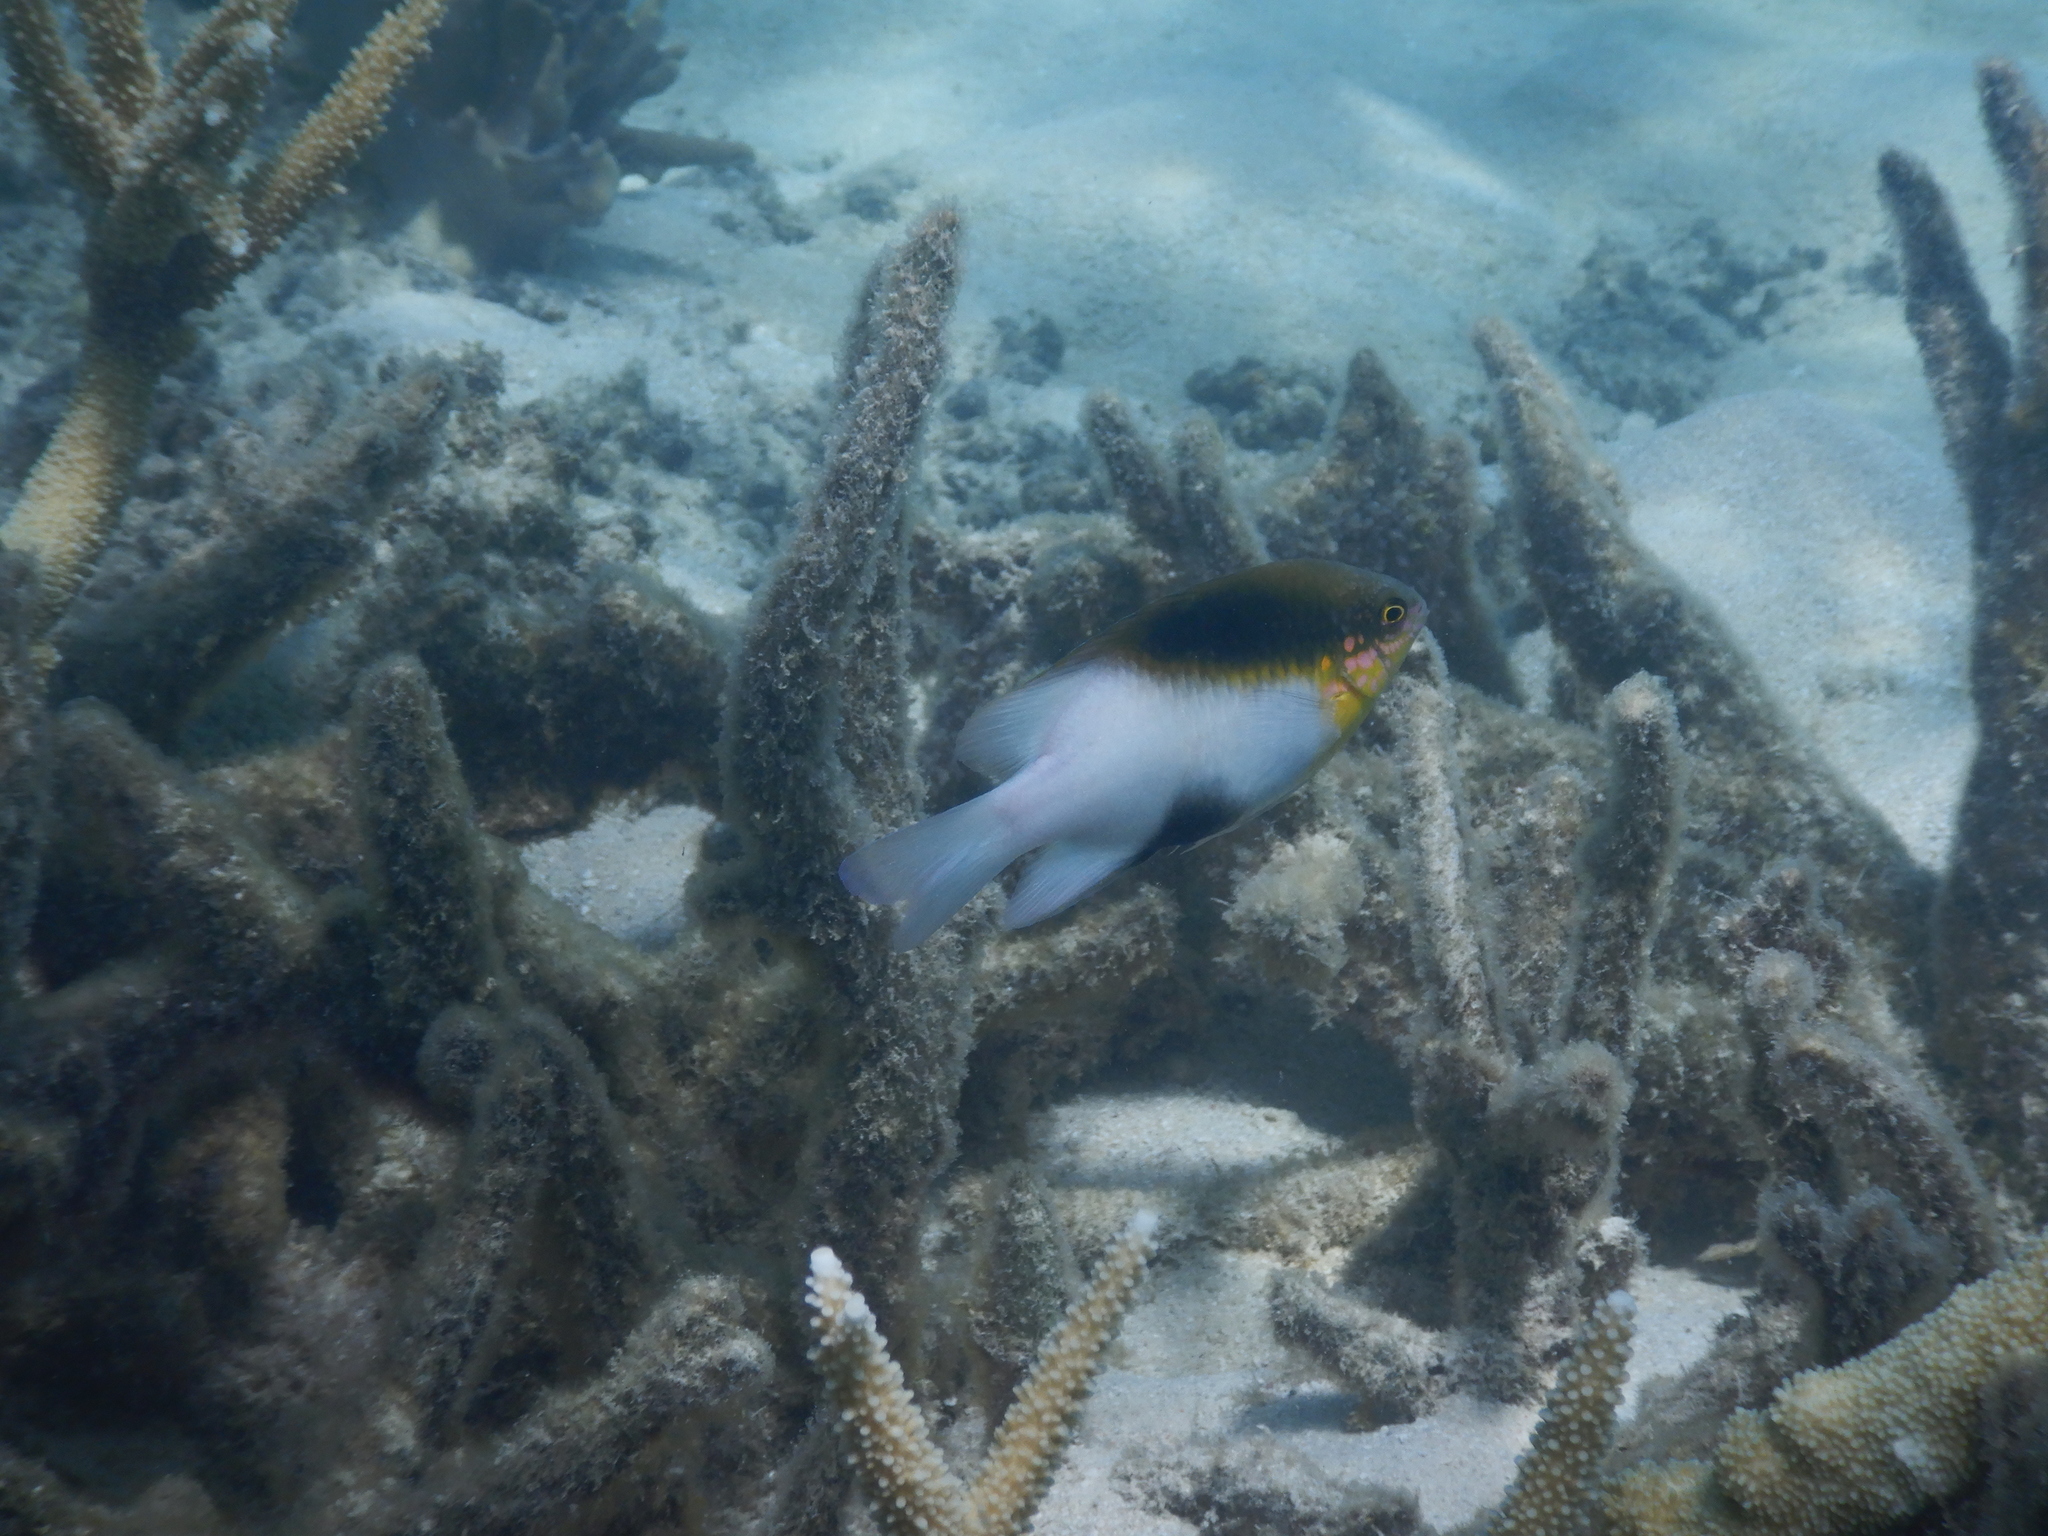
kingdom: Animalia
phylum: Chordata
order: Perciformes
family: Pomacentridae
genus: Dischistodus
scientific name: Dischistodus melanotus
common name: Black-vent damsel
